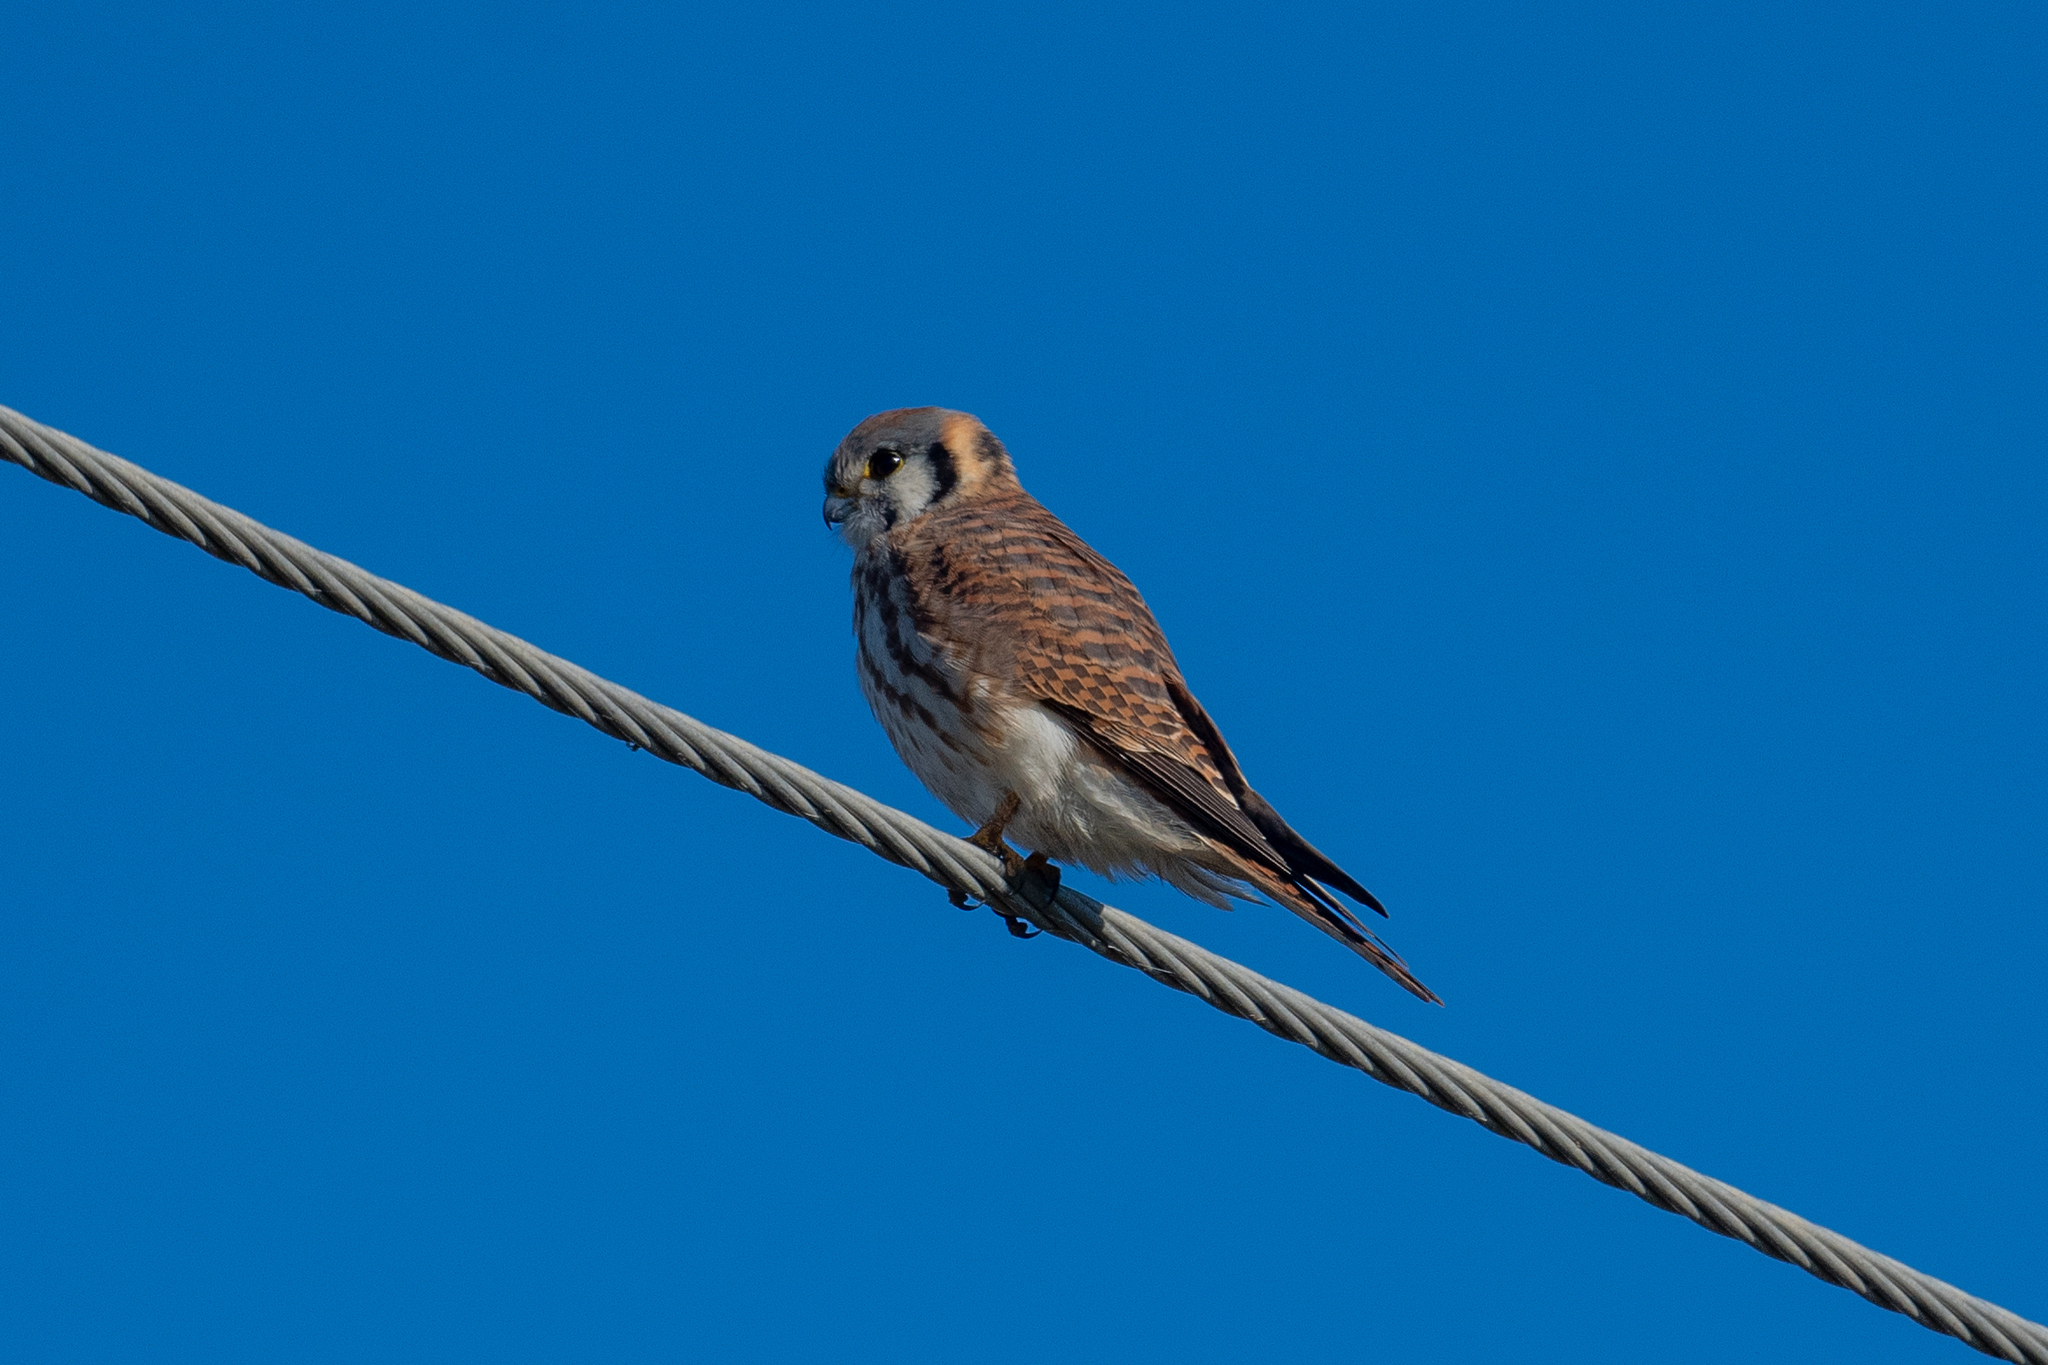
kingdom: Animalia
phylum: Chordata
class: Aves
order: Falconiformes
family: Falconidae
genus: Falco
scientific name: Falco sparverius
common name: American kestrel
